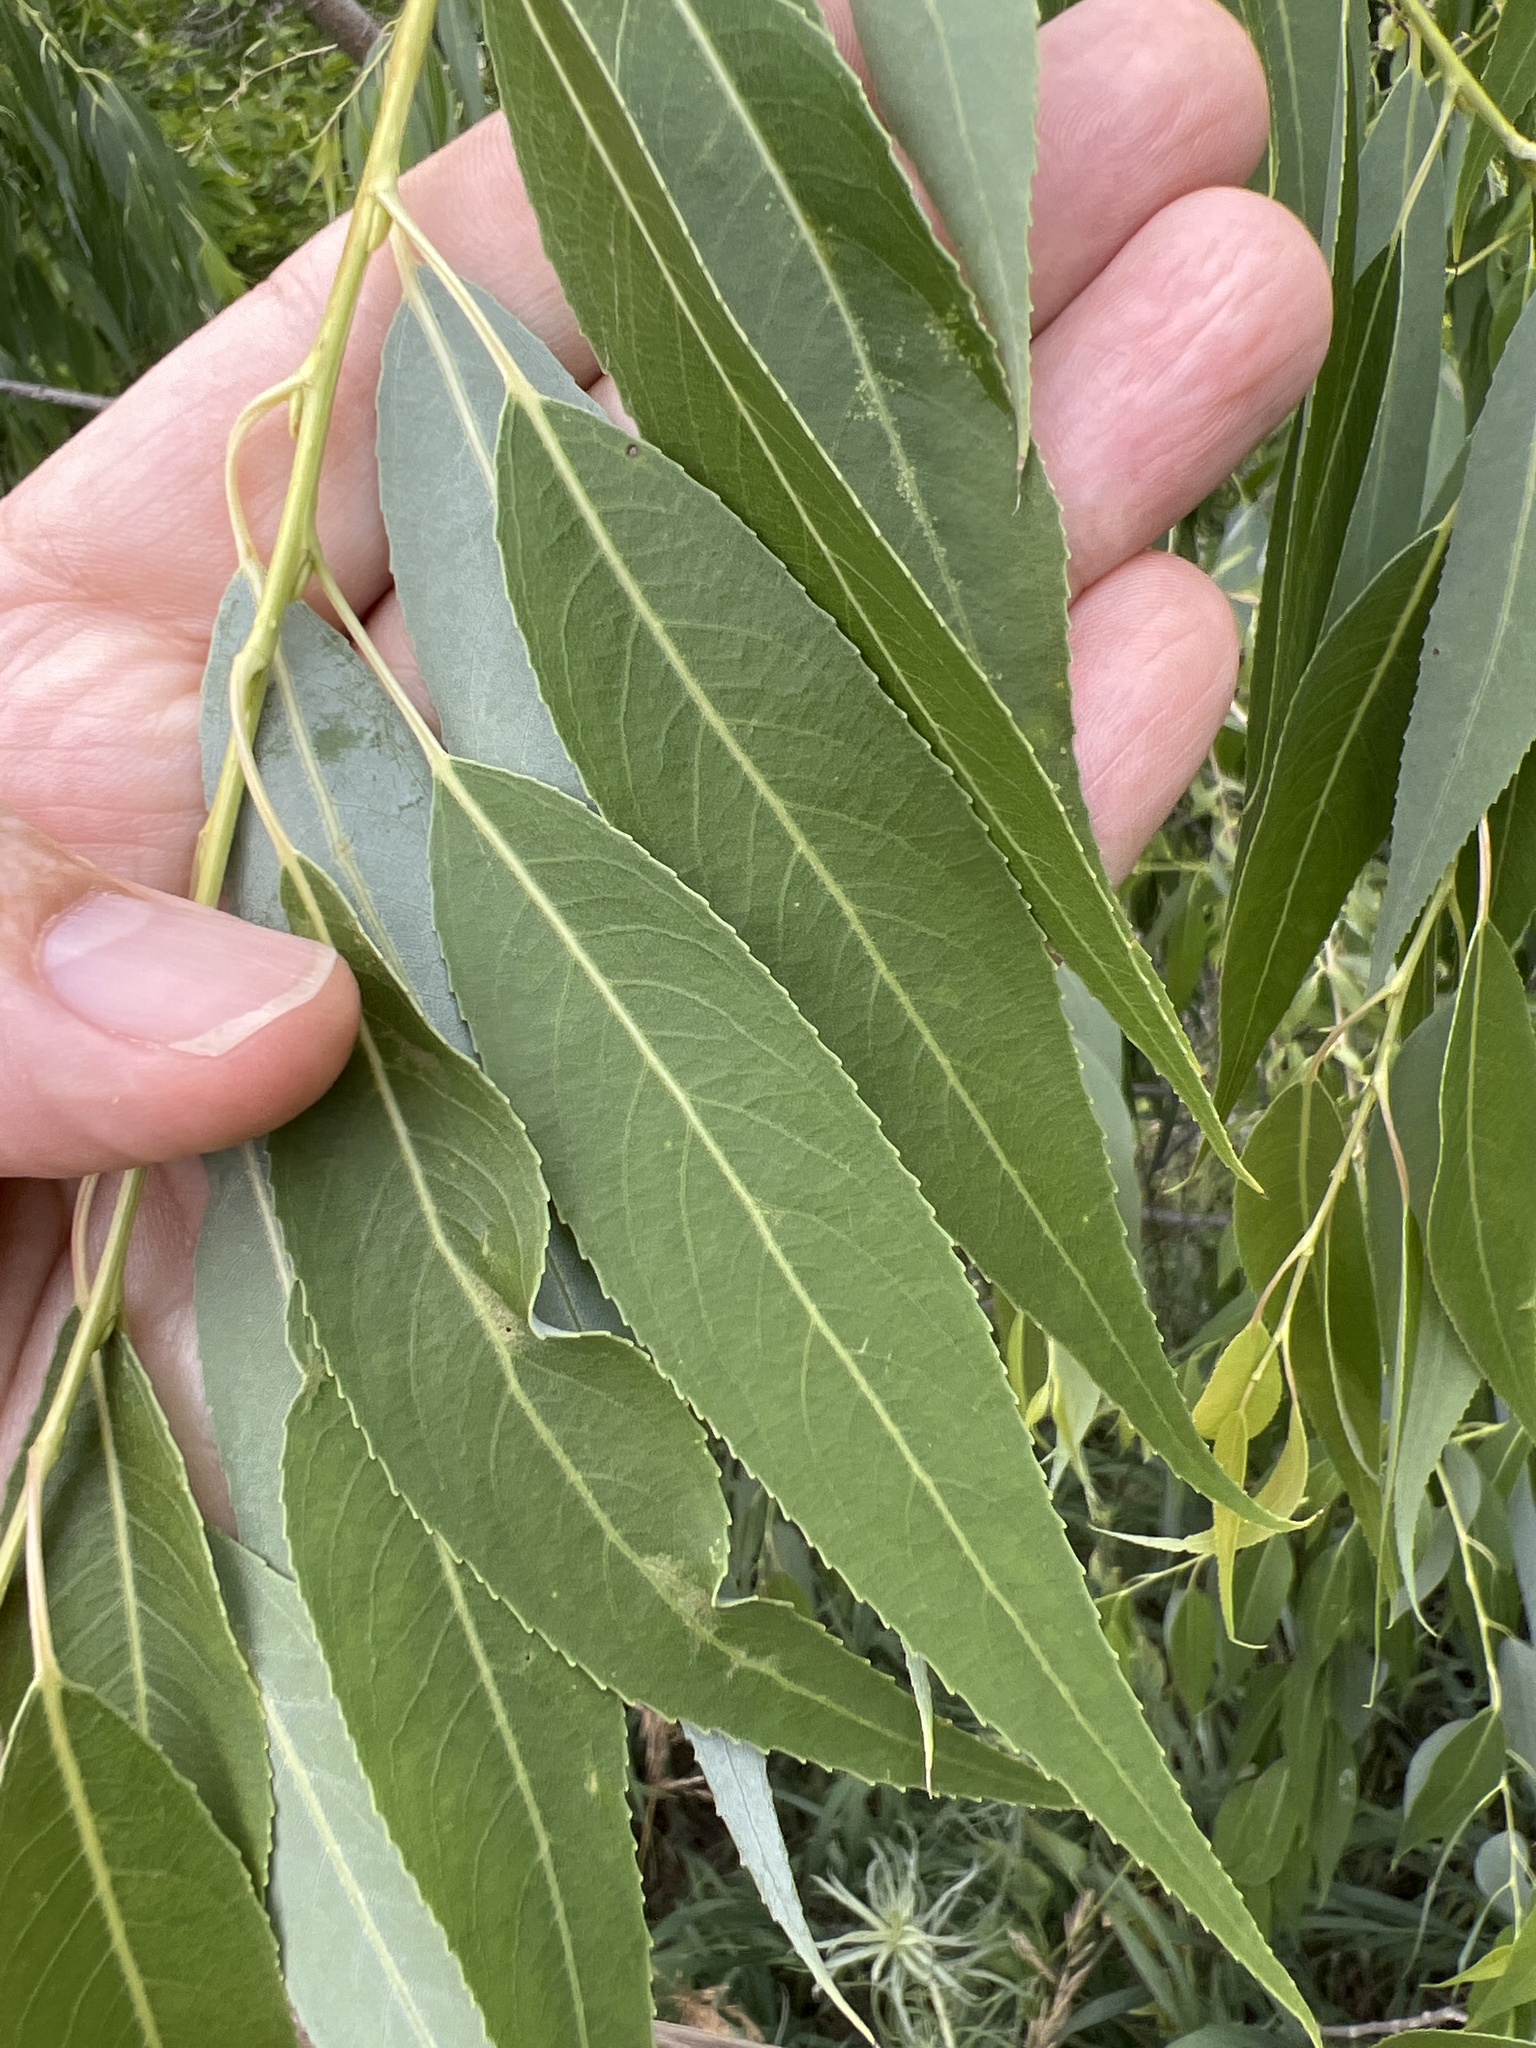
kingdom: Plantae
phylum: Tracheophyta
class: Magnoliopsida
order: Malpighiales
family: Salicaceae
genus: Salix
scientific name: Salix amygdaloides
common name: Peach leaf willow
